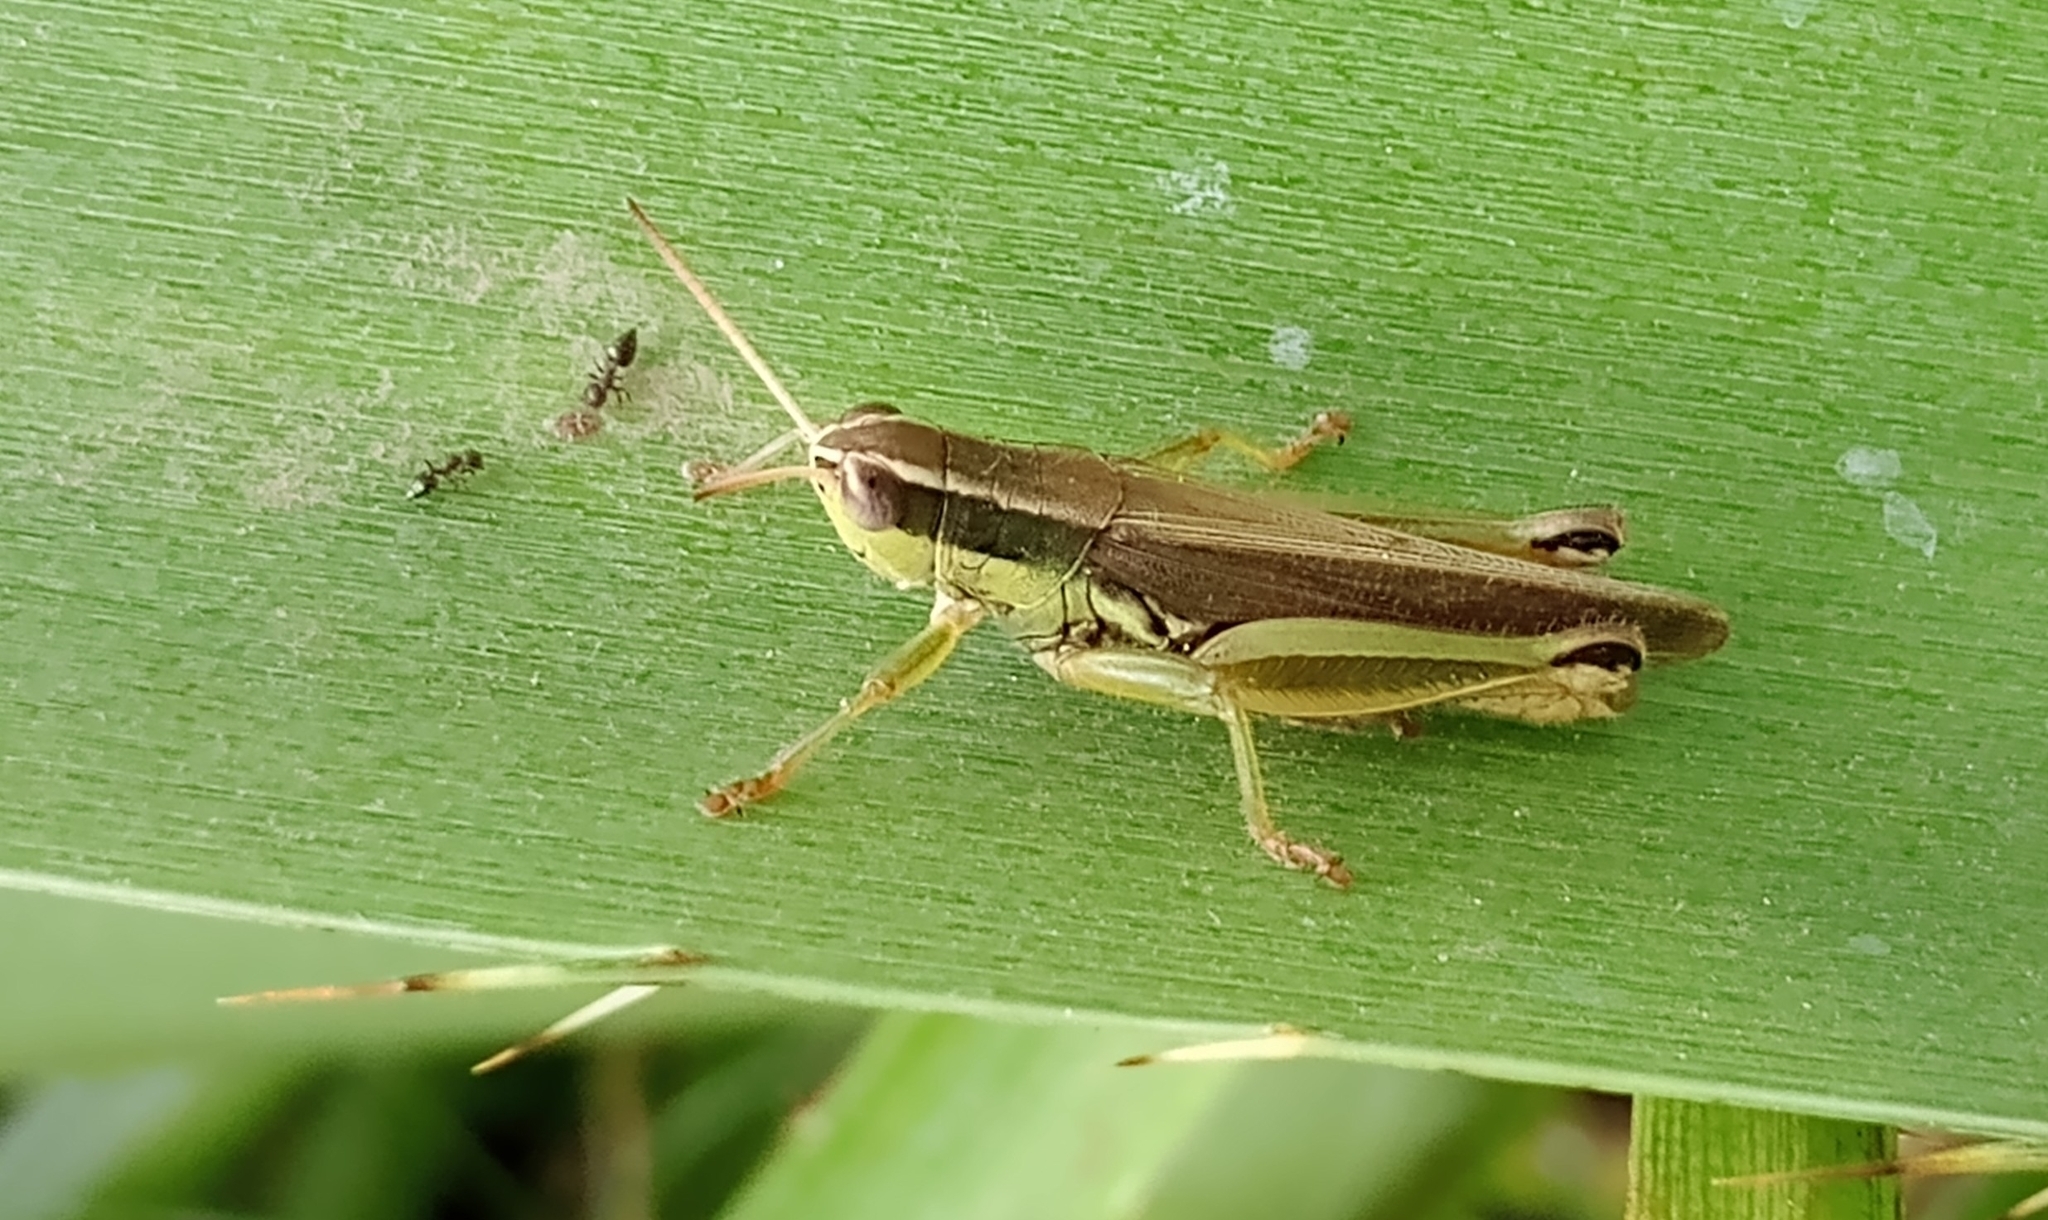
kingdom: Animalia
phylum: Arthropoda
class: Insecta
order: Orthoptera
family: Acrididae
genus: Scotussa
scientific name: Scotussa cliens
